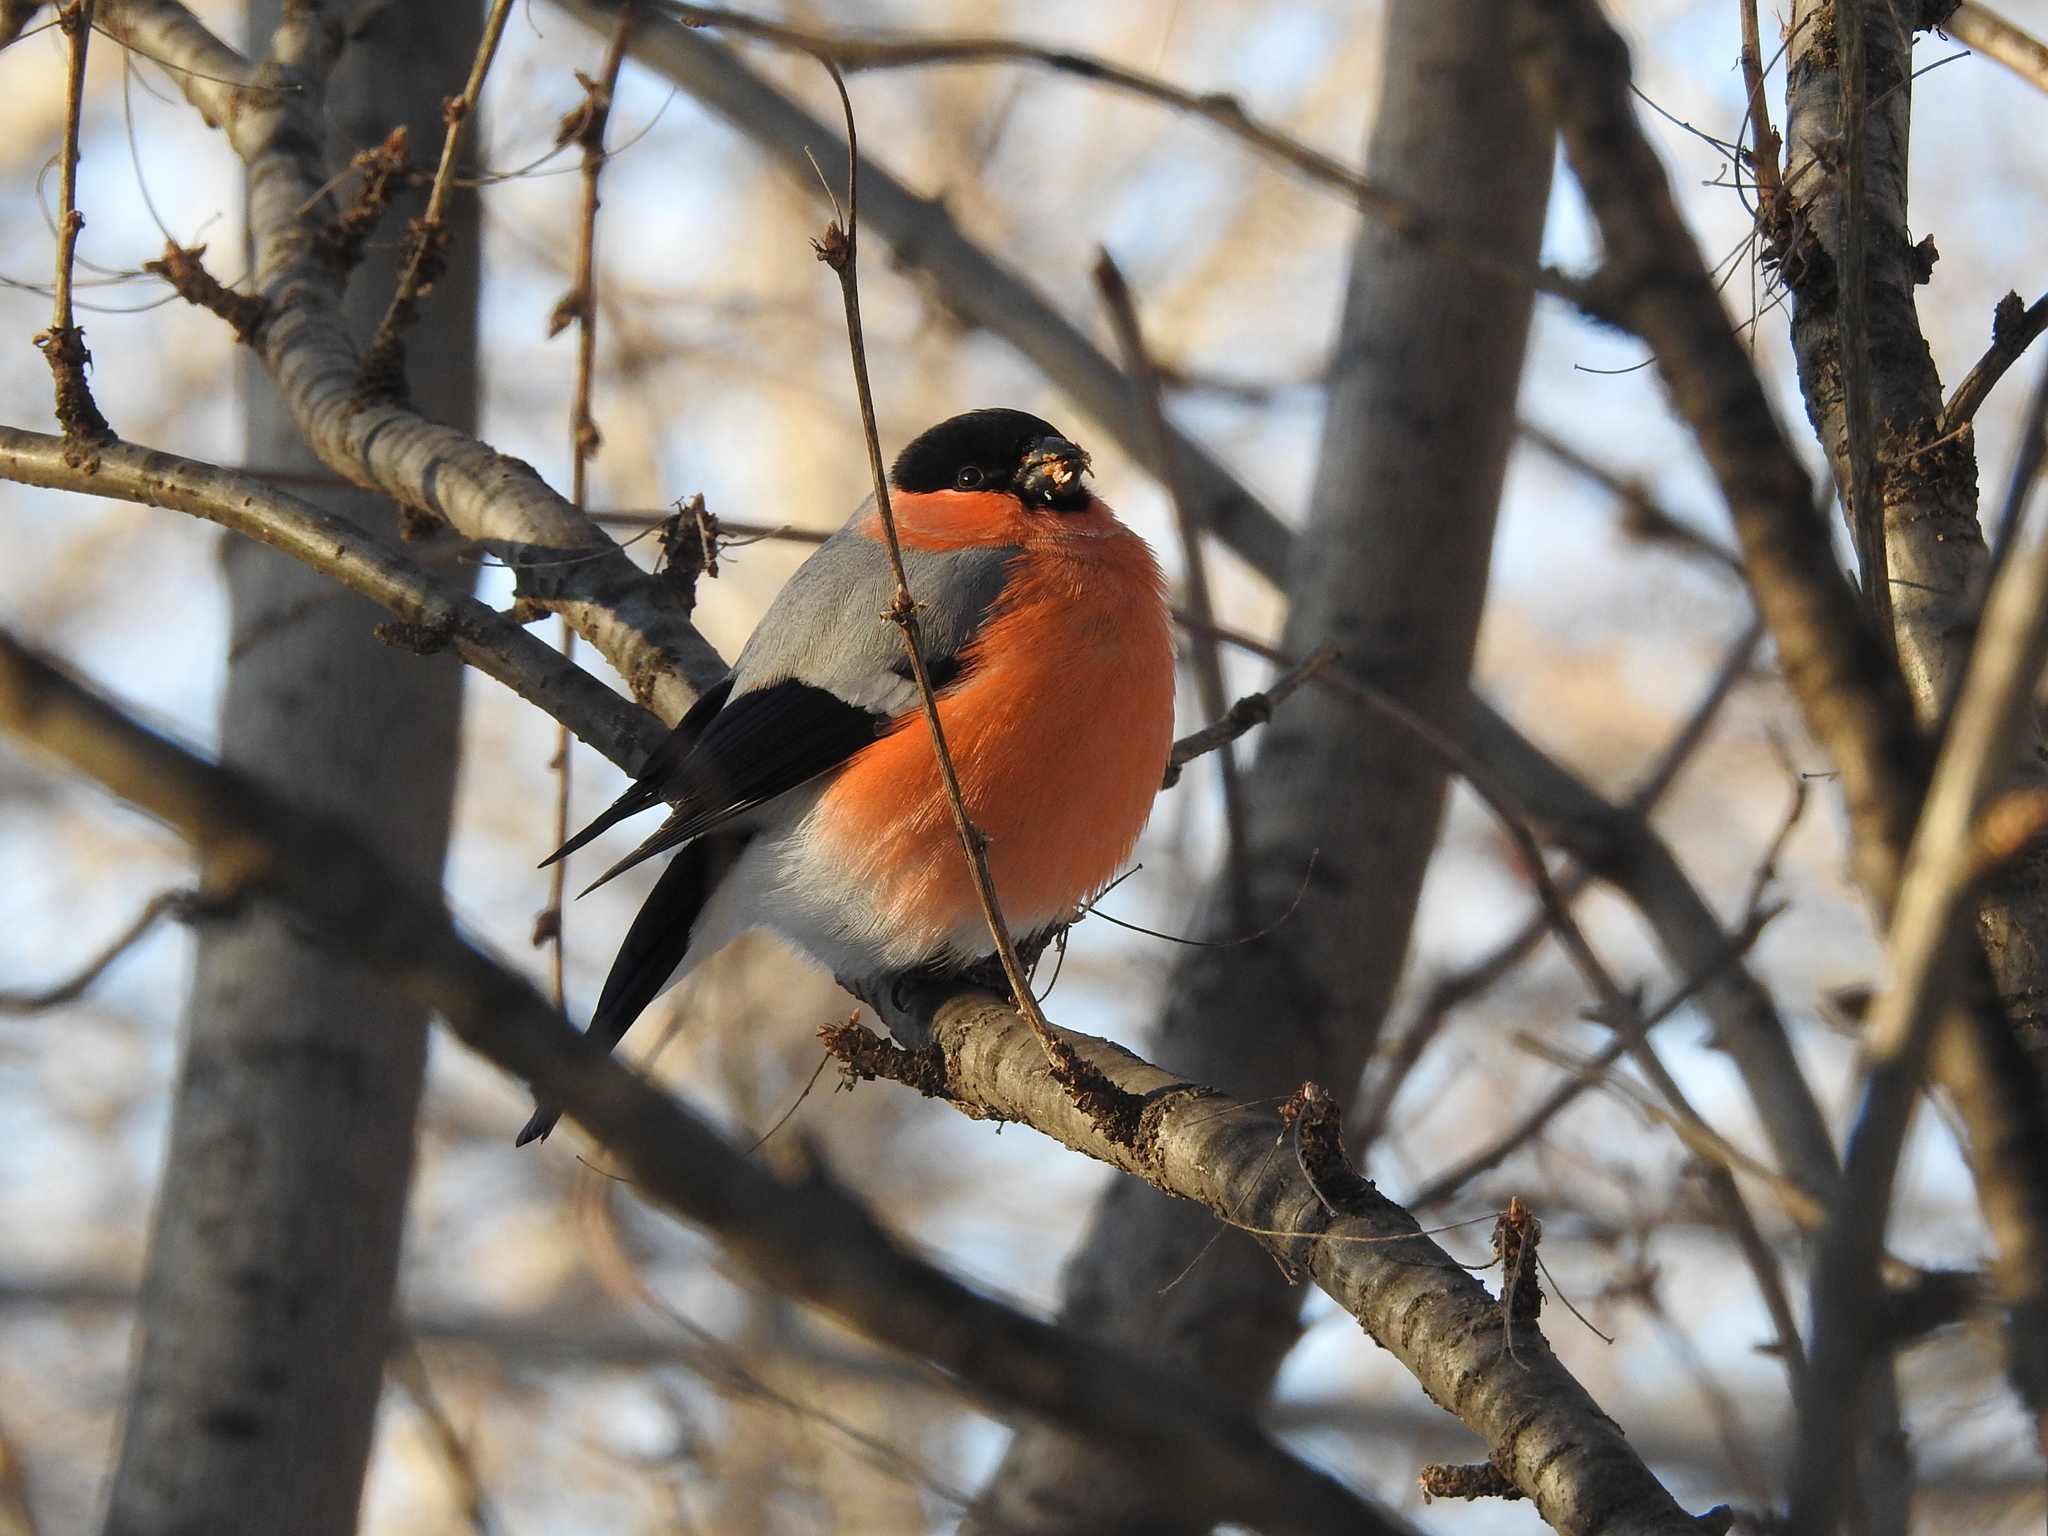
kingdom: Animalia
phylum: Chordata
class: Aves
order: Passeriformes
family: Fringillidae
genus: Pyrrhula
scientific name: Pyrrhula pyrrhula
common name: Eurasian bullfinch
